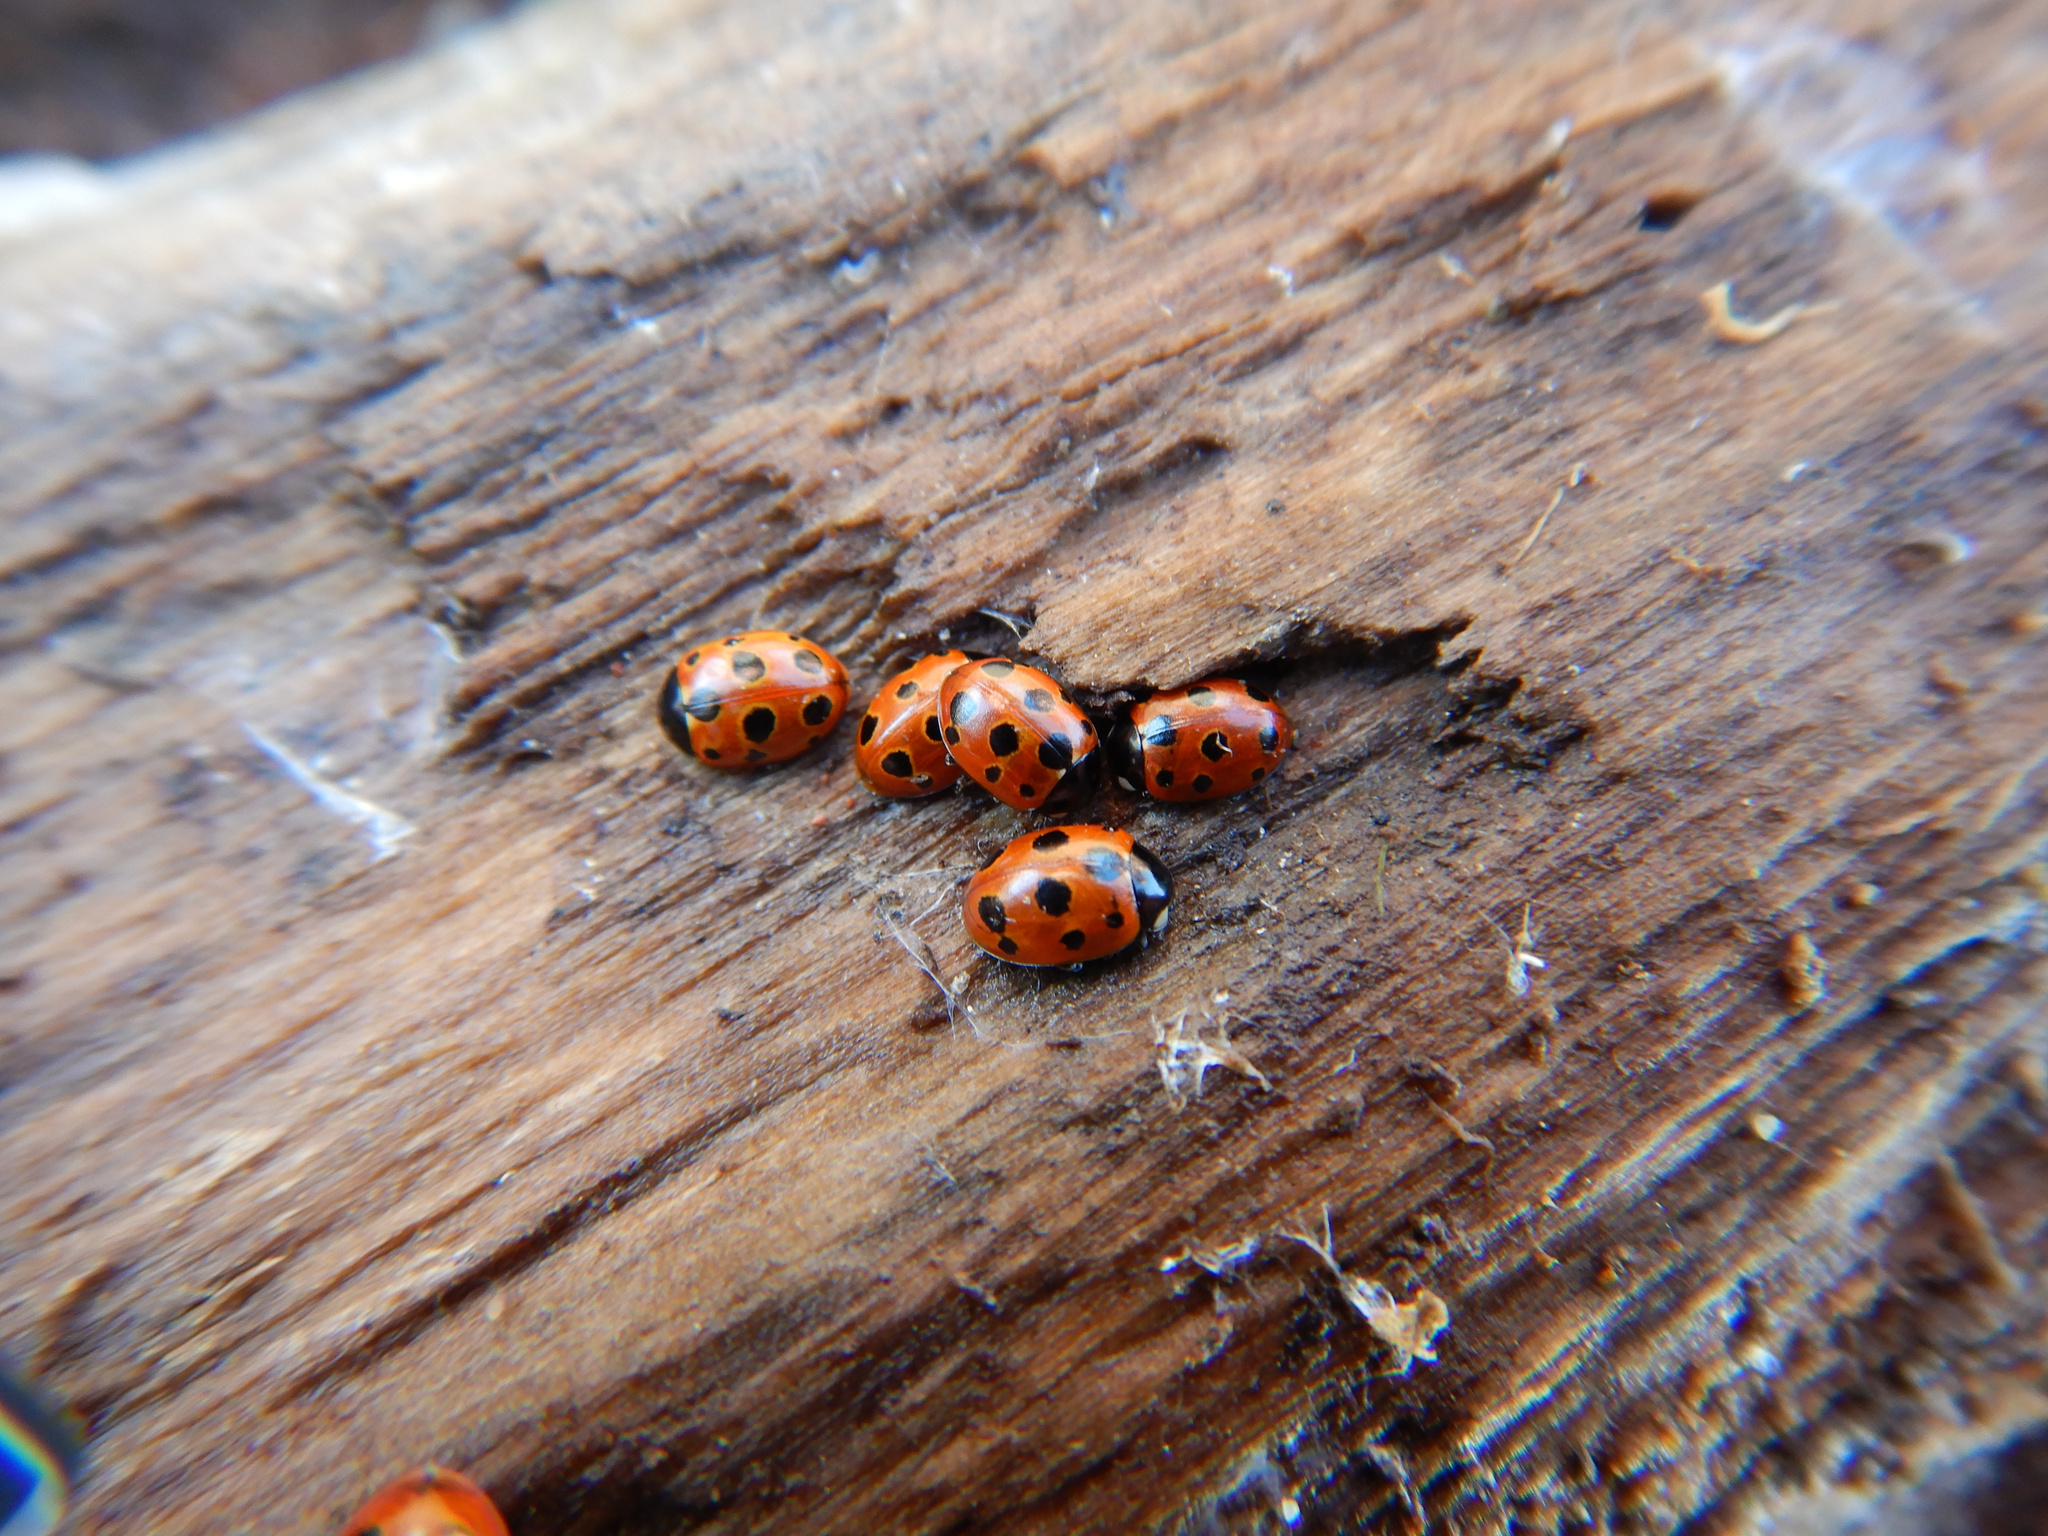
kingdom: Animalia
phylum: Arthropoda
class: Insecta
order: Coleoptera
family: Coccinellidae
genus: Coccinella
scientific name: Coccinella undecimpunctata
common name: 11-spot ladybird
